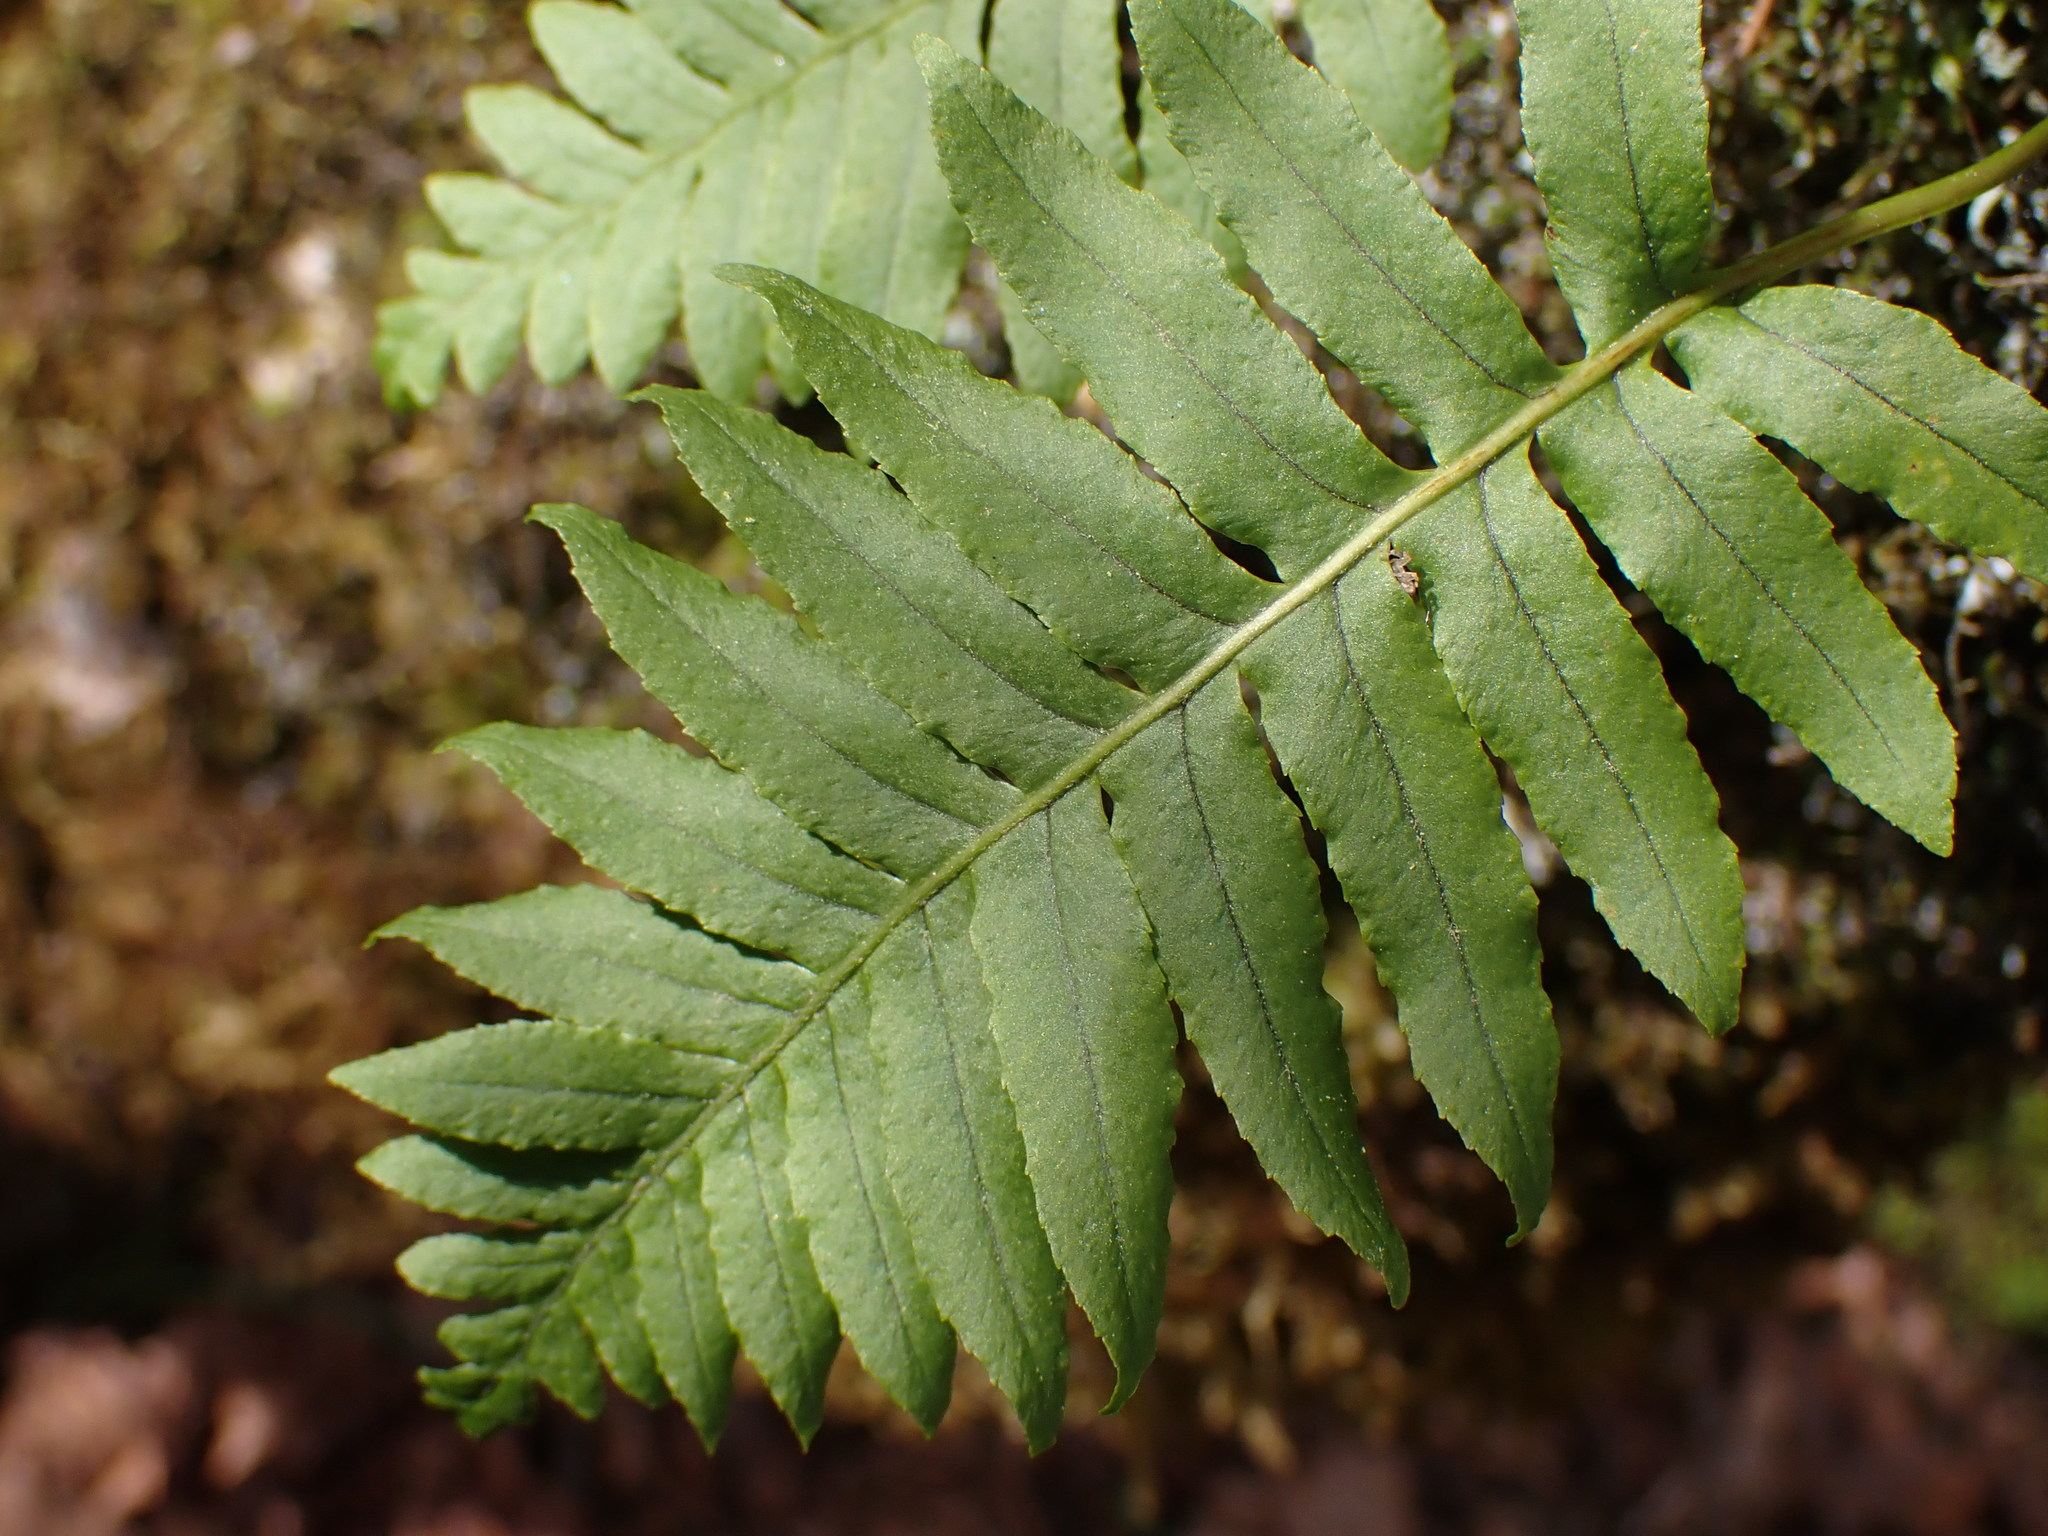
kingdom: Plantae
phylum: Tracheophyta
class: Polypodiopsida
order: Polypodiales
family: Polypodiaceae
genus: Polypodium
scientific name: Polypodium glycyrrhiza
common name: Licorice fern
